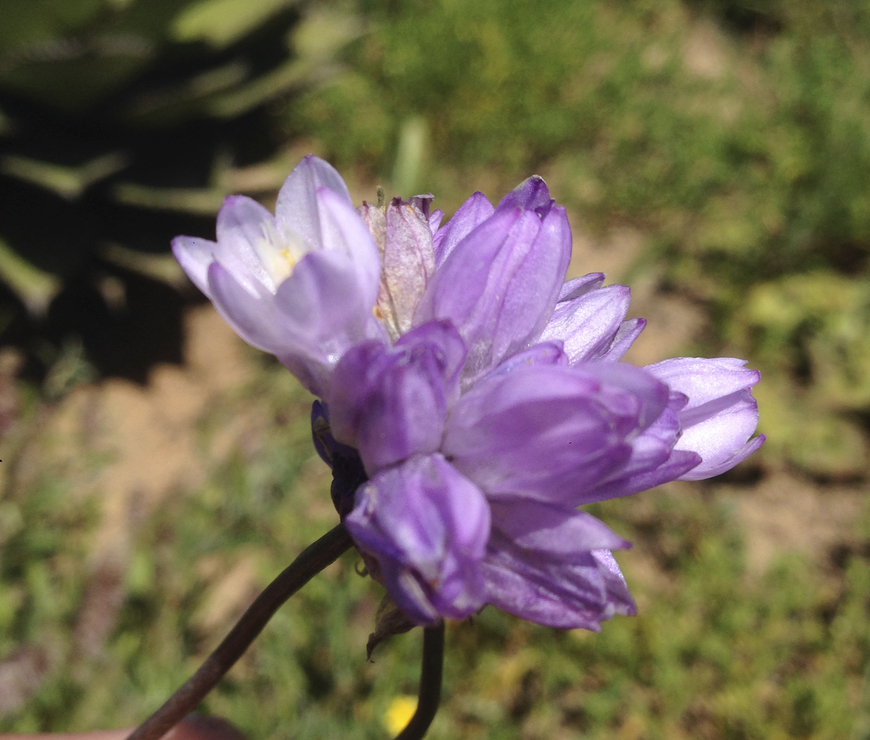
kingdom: Plantae
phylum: Tracheophyta
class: Liliopsida
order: Asparagales
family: Asparagaceae
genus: Dipterostemon
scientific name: Dipterostemon capitatus
